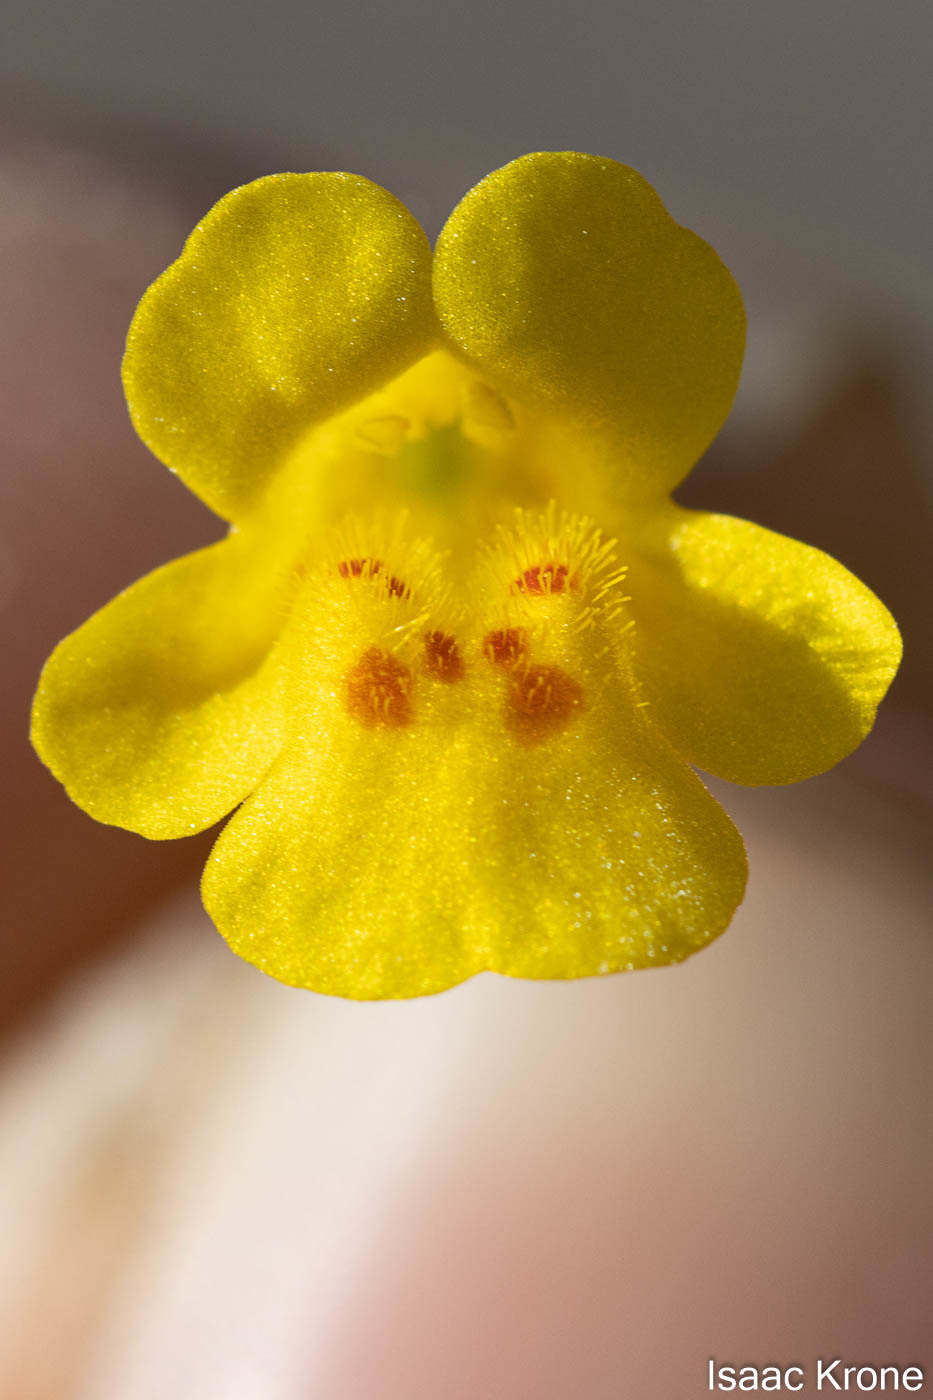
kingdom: Plantae
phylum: Tracheophyta
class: Magnoliopsida
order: Lamiales
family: Phrymaceae
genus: Erythranthe
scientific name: Erythranthe cordata
